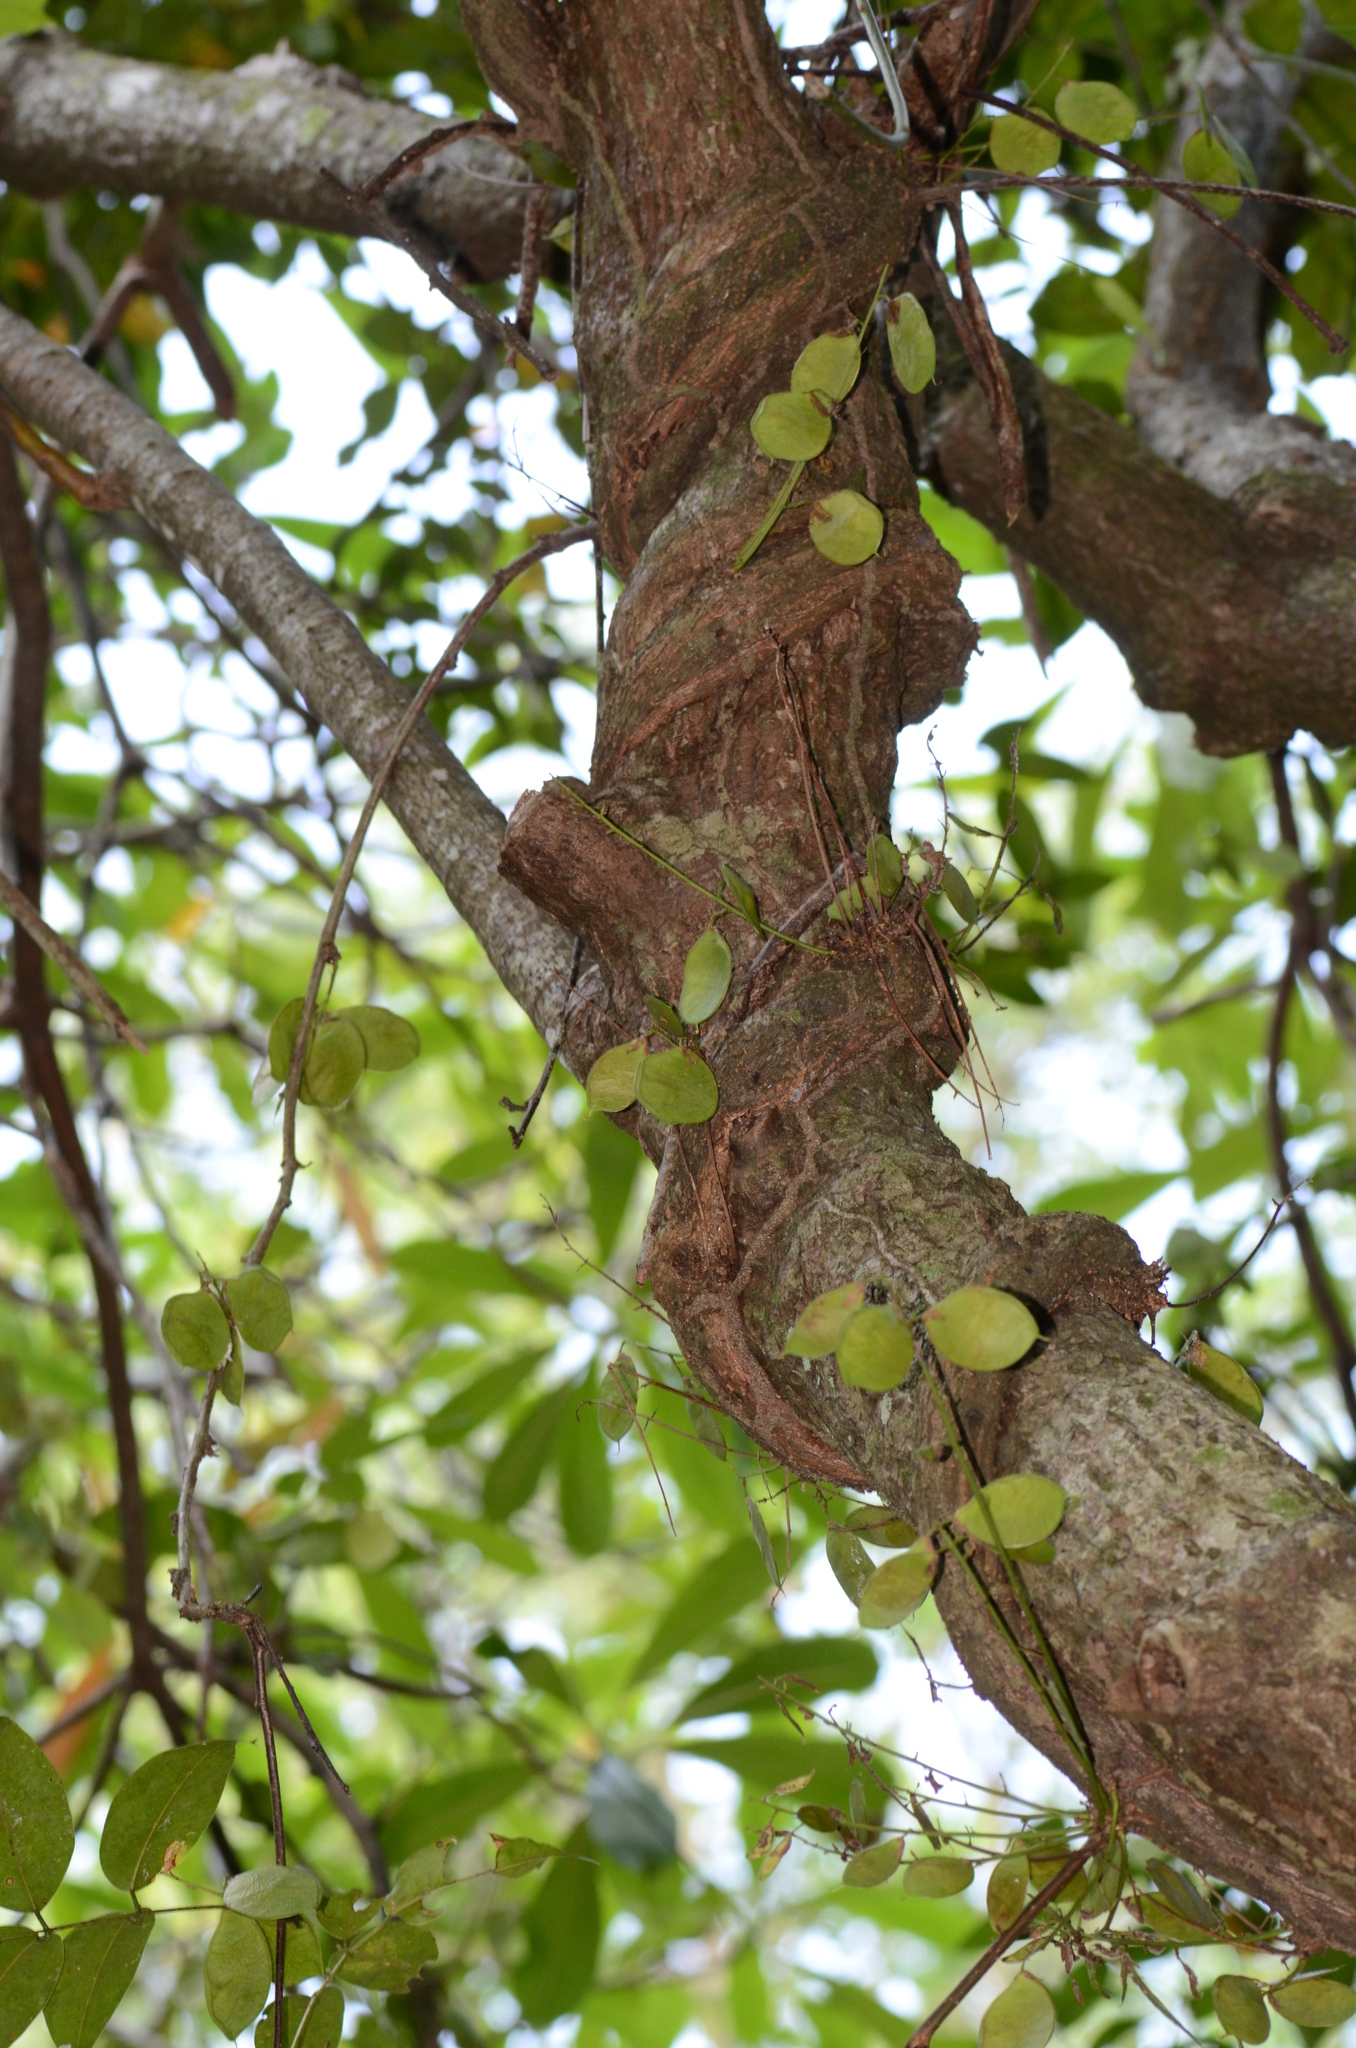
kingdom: Plantae
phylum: Tracheophyta
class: Magnoliopsida
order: Fabales
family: Fabaceae
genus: Derris
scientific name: Derris trifoliata
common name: Three-leaf derris
